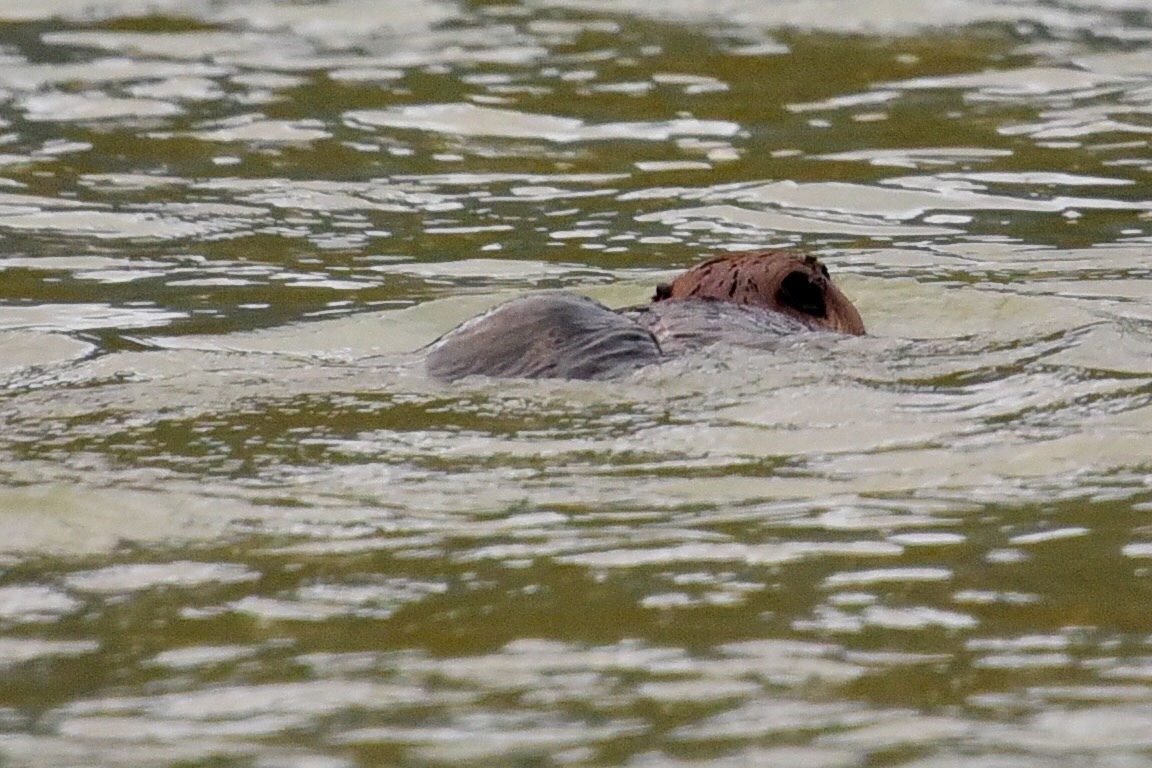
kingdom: Animalia
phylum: Chordata
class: Mammalia
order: Rodentia
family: Castoridae
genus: Castor
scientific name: Castor canadensis
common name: American beaver
